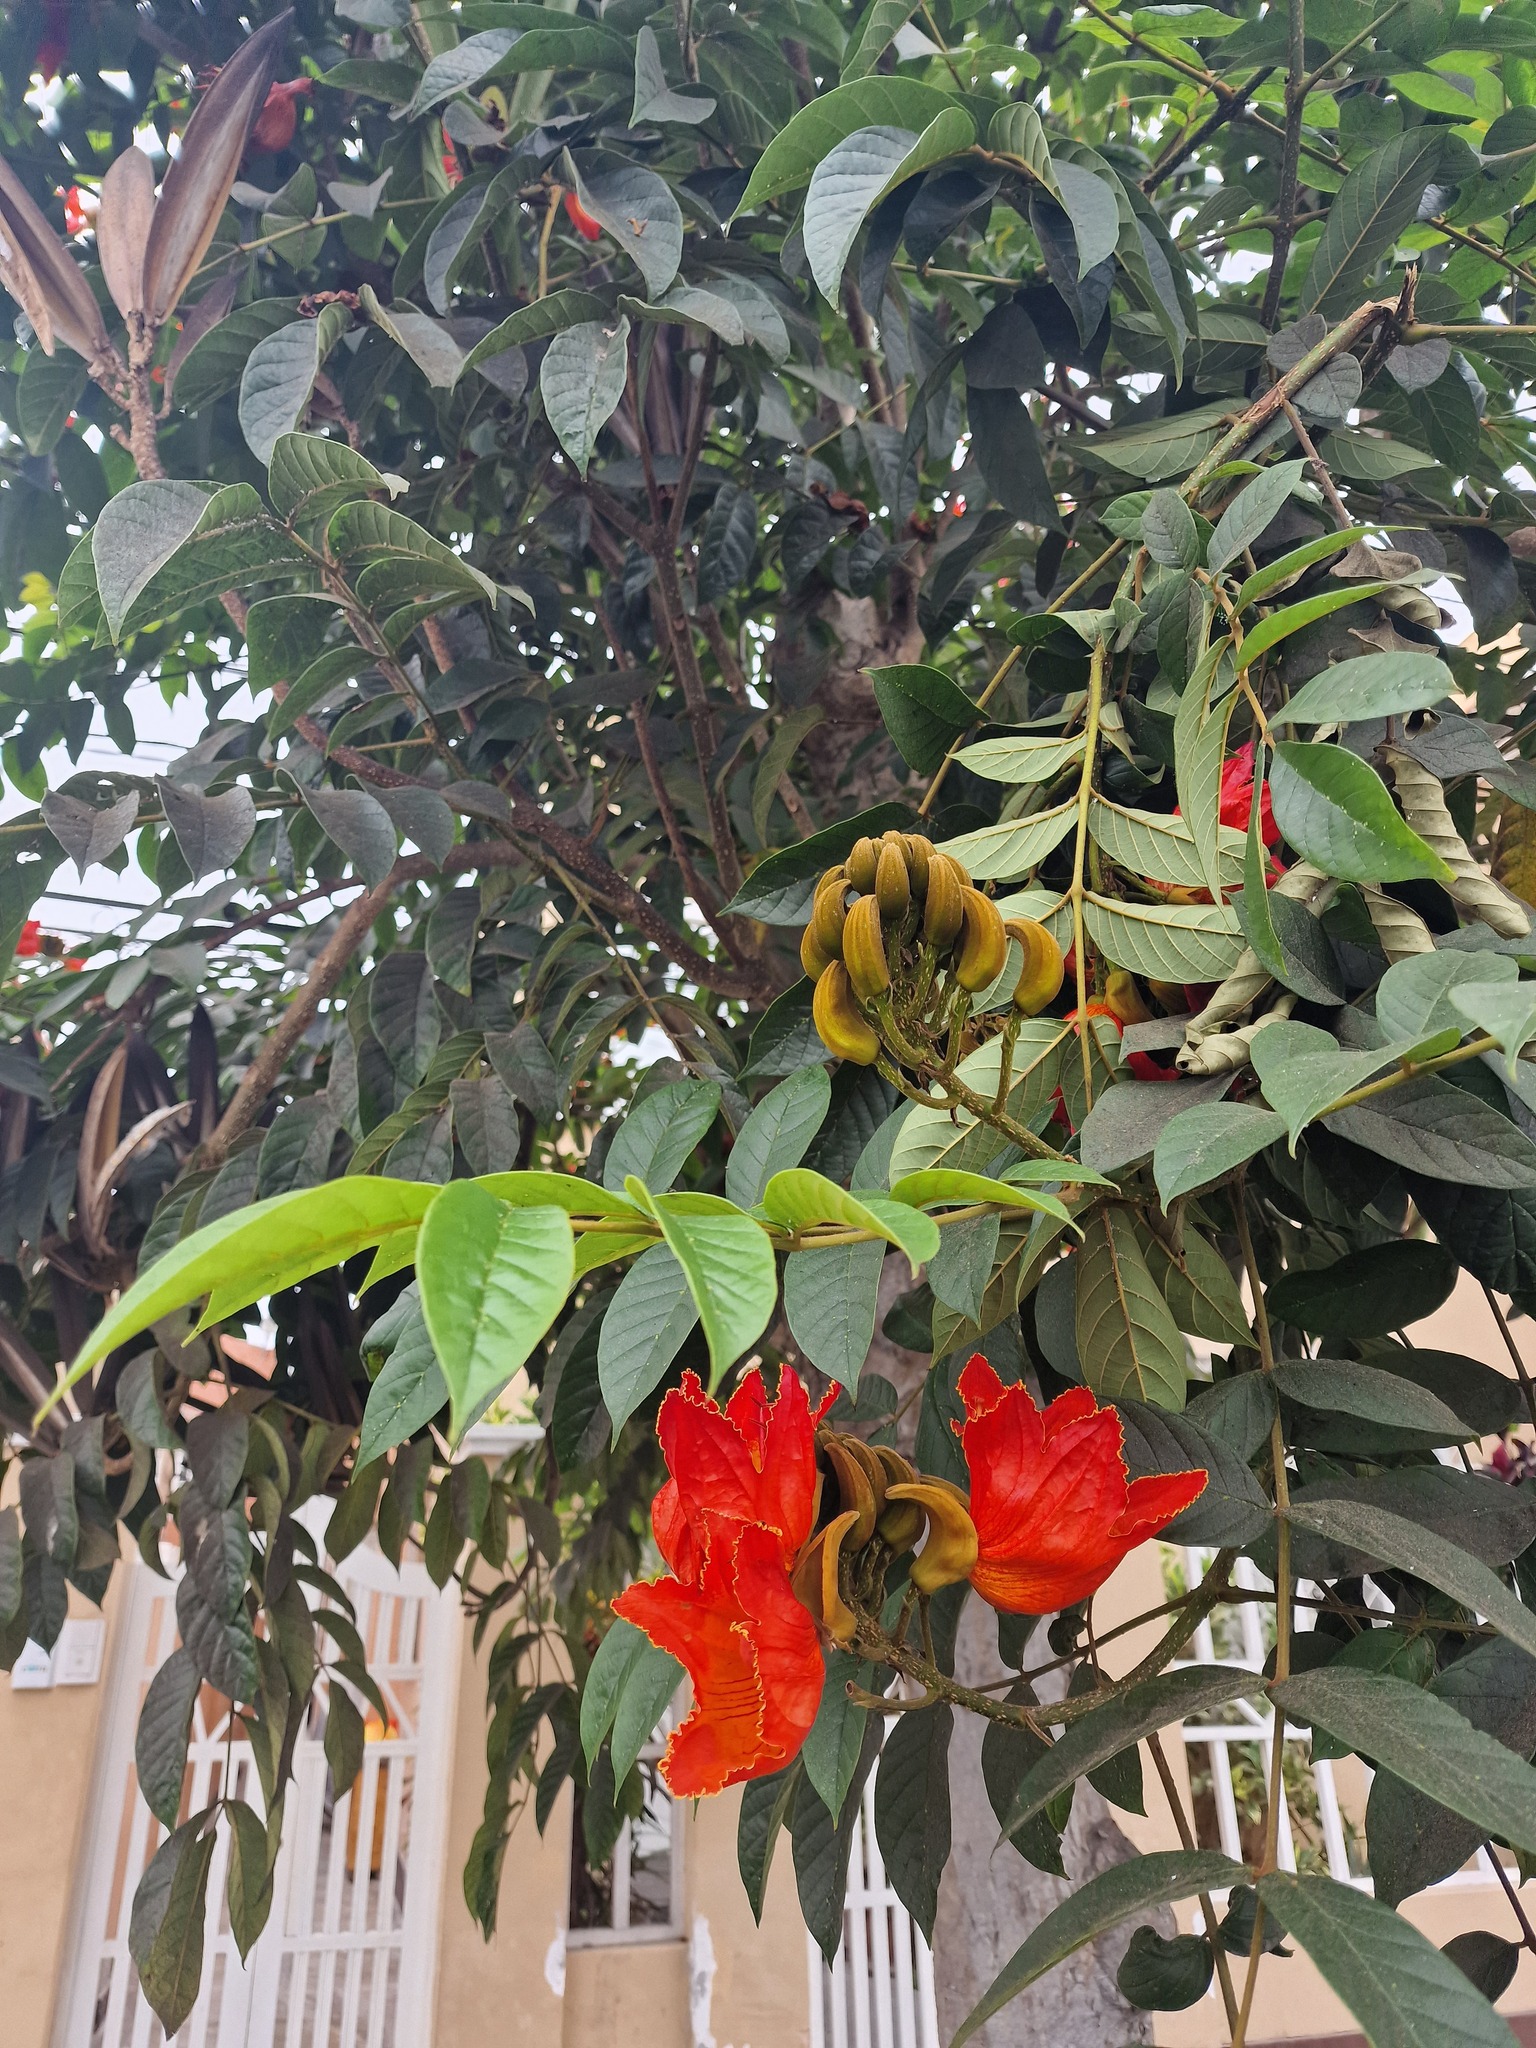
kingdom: Plantae
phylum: Tracheophyta
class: Magnoliopsida
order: Lamiales
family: Bignoniaceae
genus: Spathodea
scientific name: Spathodea campanulata
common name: African tuliptree
